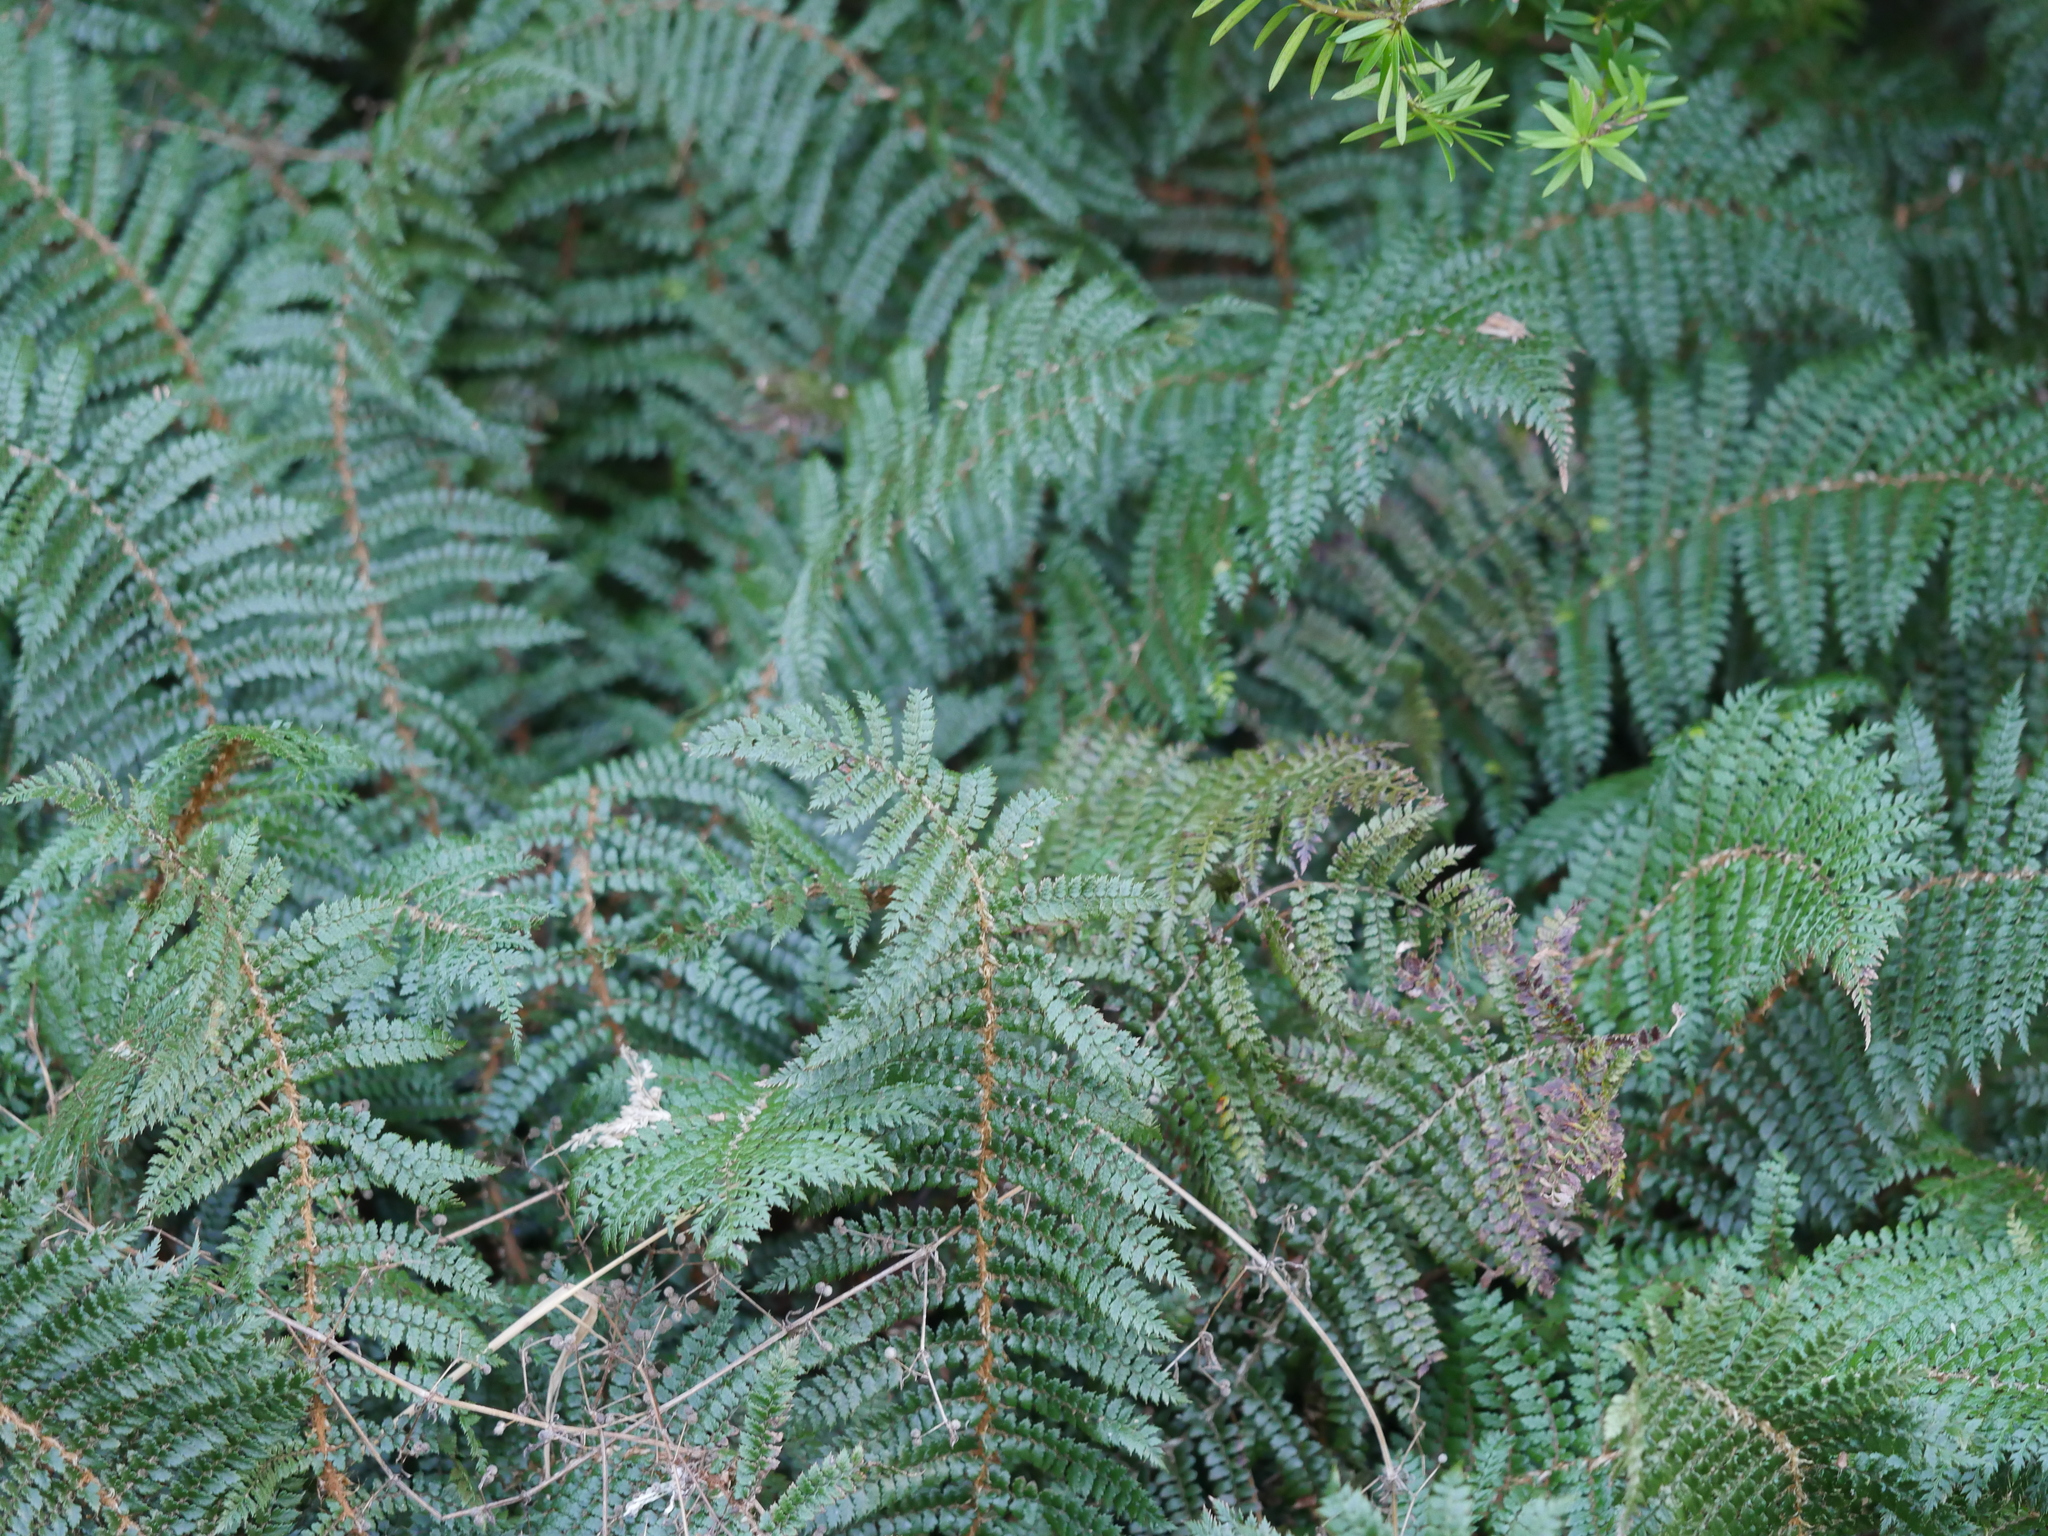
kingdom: Plantae
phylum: Tracheophyta
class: Polypodiopsida
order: Polypodiales
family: Dryopteridaceae
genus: Polystichum
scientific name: Polystichum vestitum
